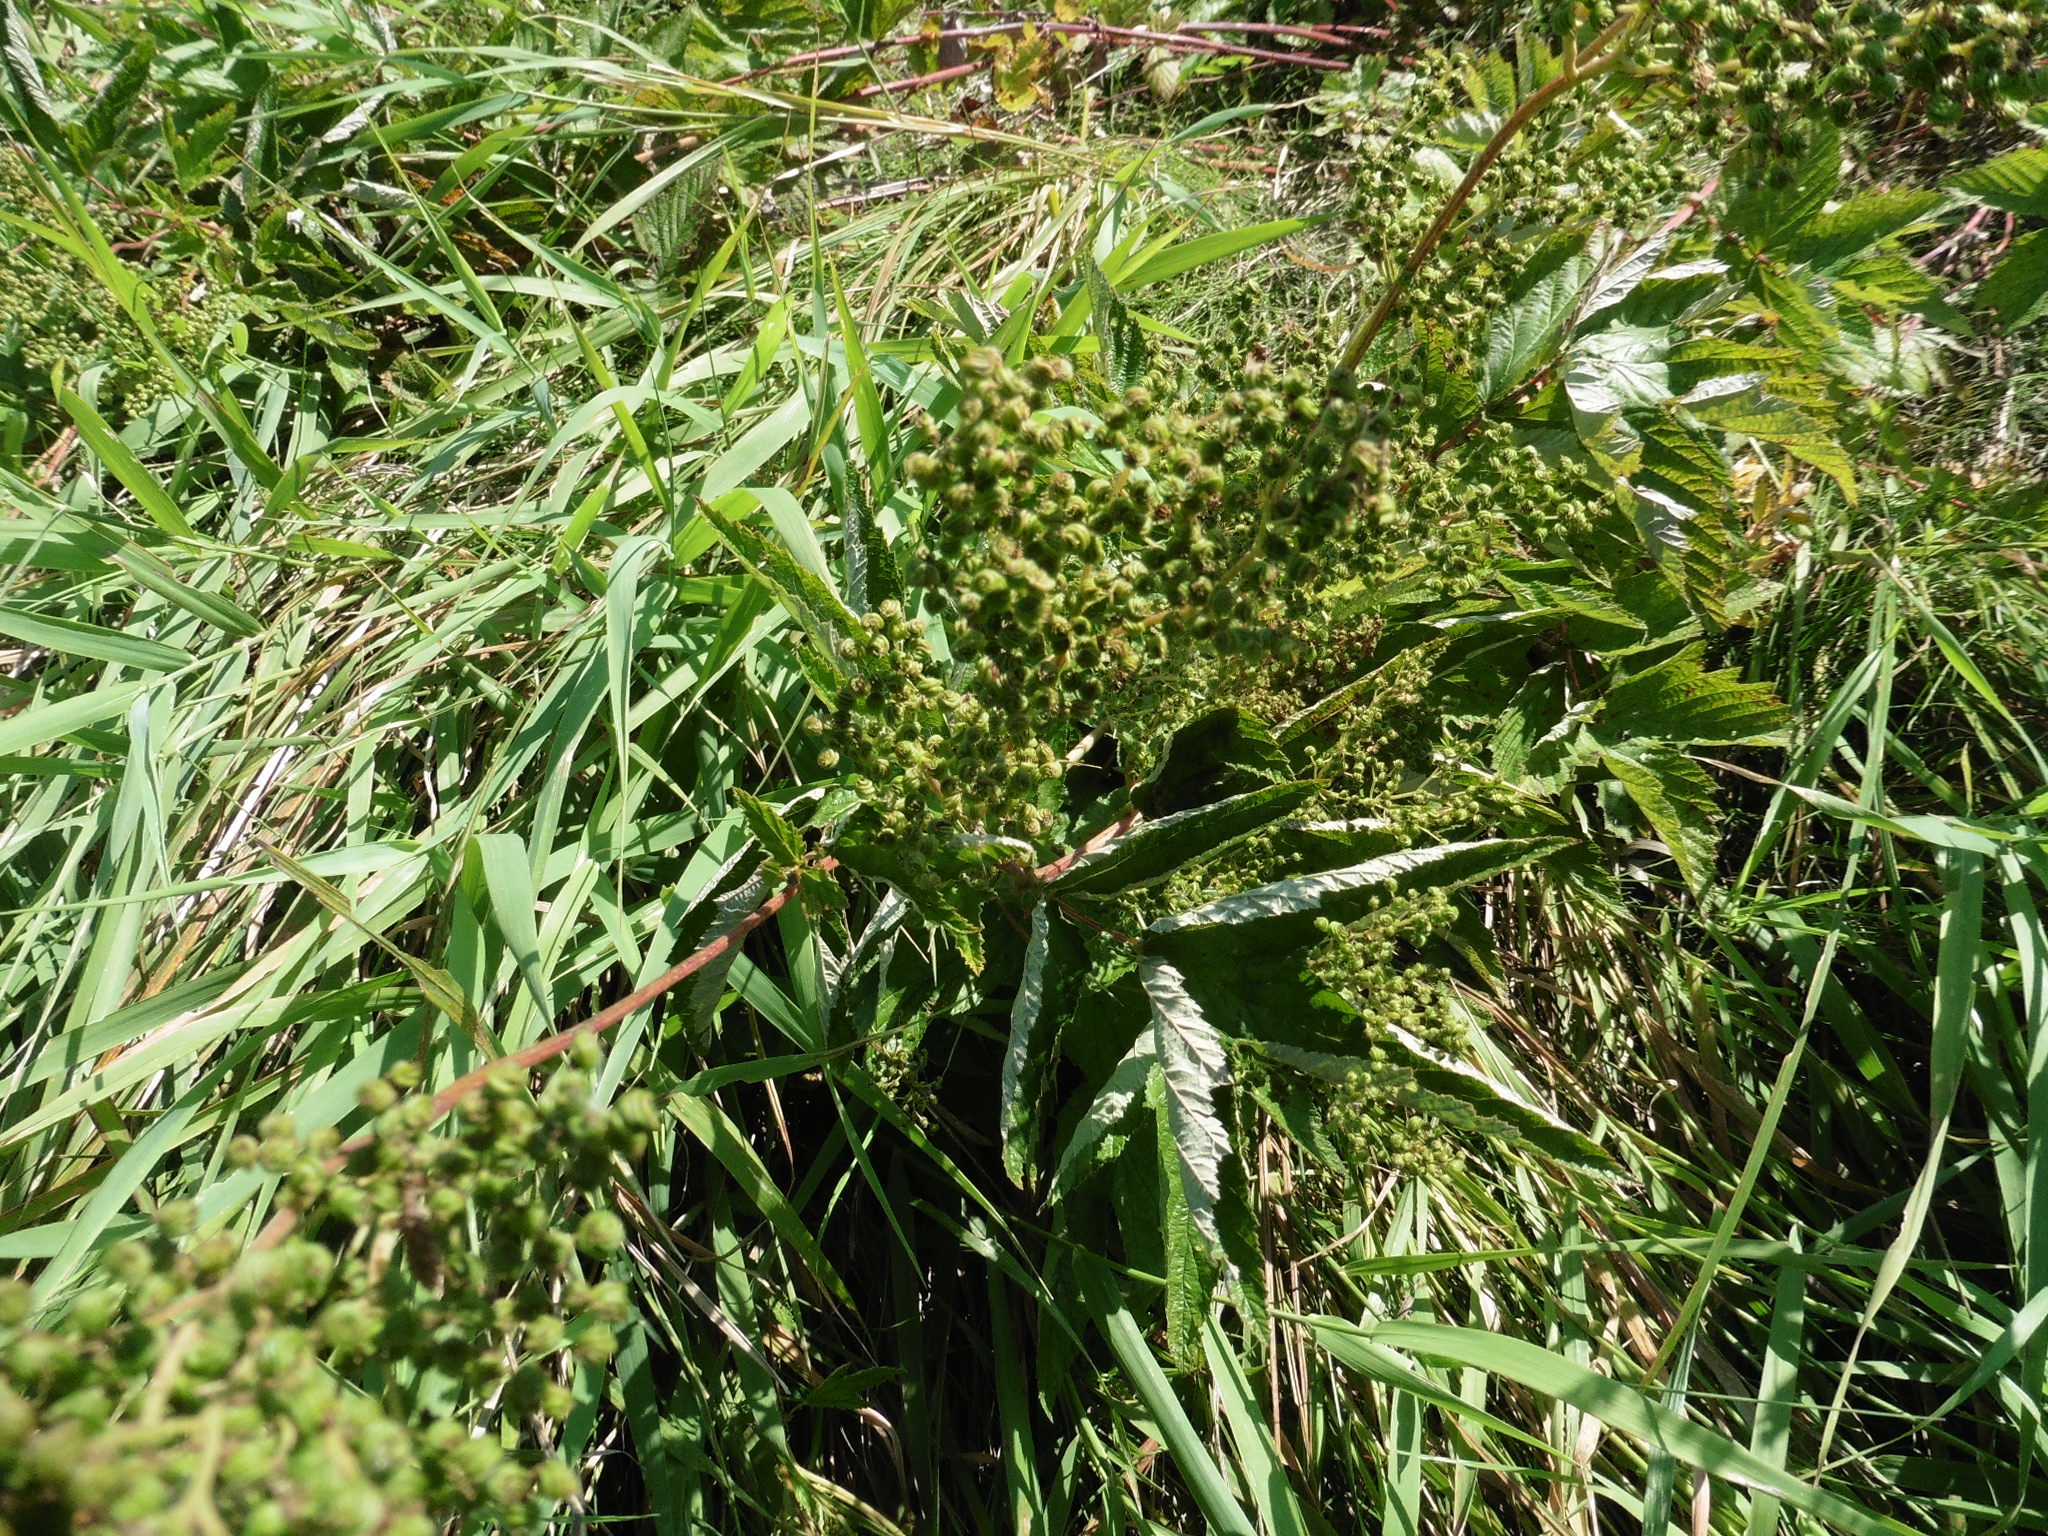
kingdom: Plantae
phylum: Tracheophyta
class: Magnoliopsida
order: Rosales
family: Rosaceae
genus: Filipendula
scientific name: Filipendula ulmaria
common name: Meadowsweet
